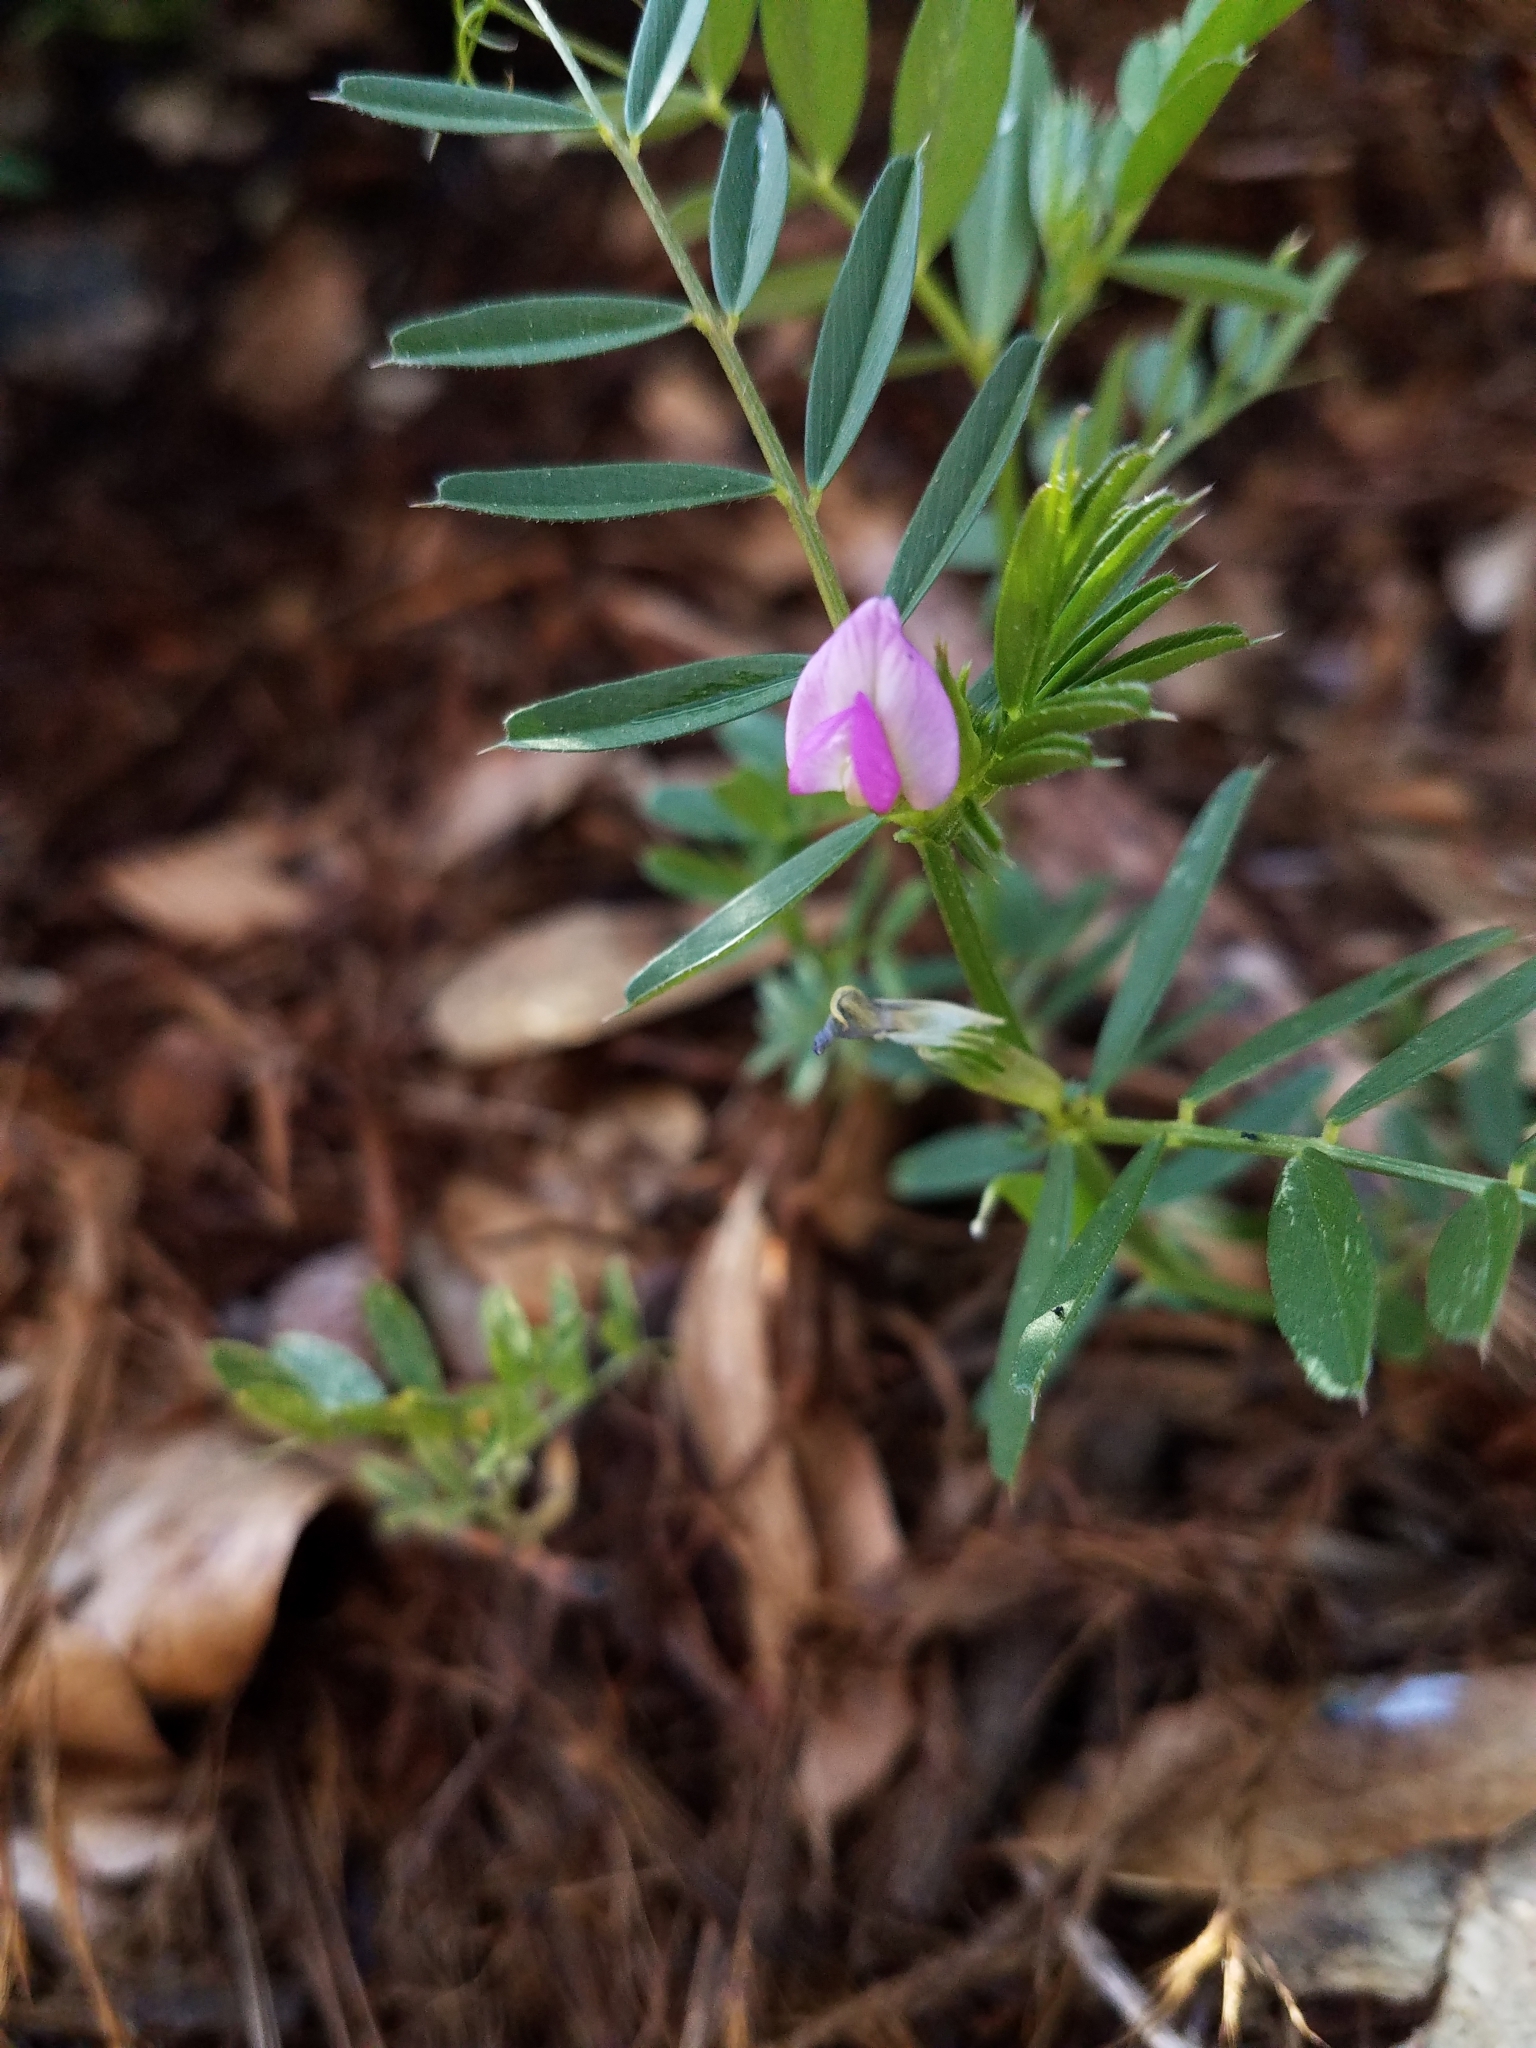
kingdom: Plantae
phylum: Tracheophyta
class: Magnoliopsida
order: Fabales
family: Fabaceae
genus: Vicia
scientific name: Vicia sativa
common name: Garden vetch
